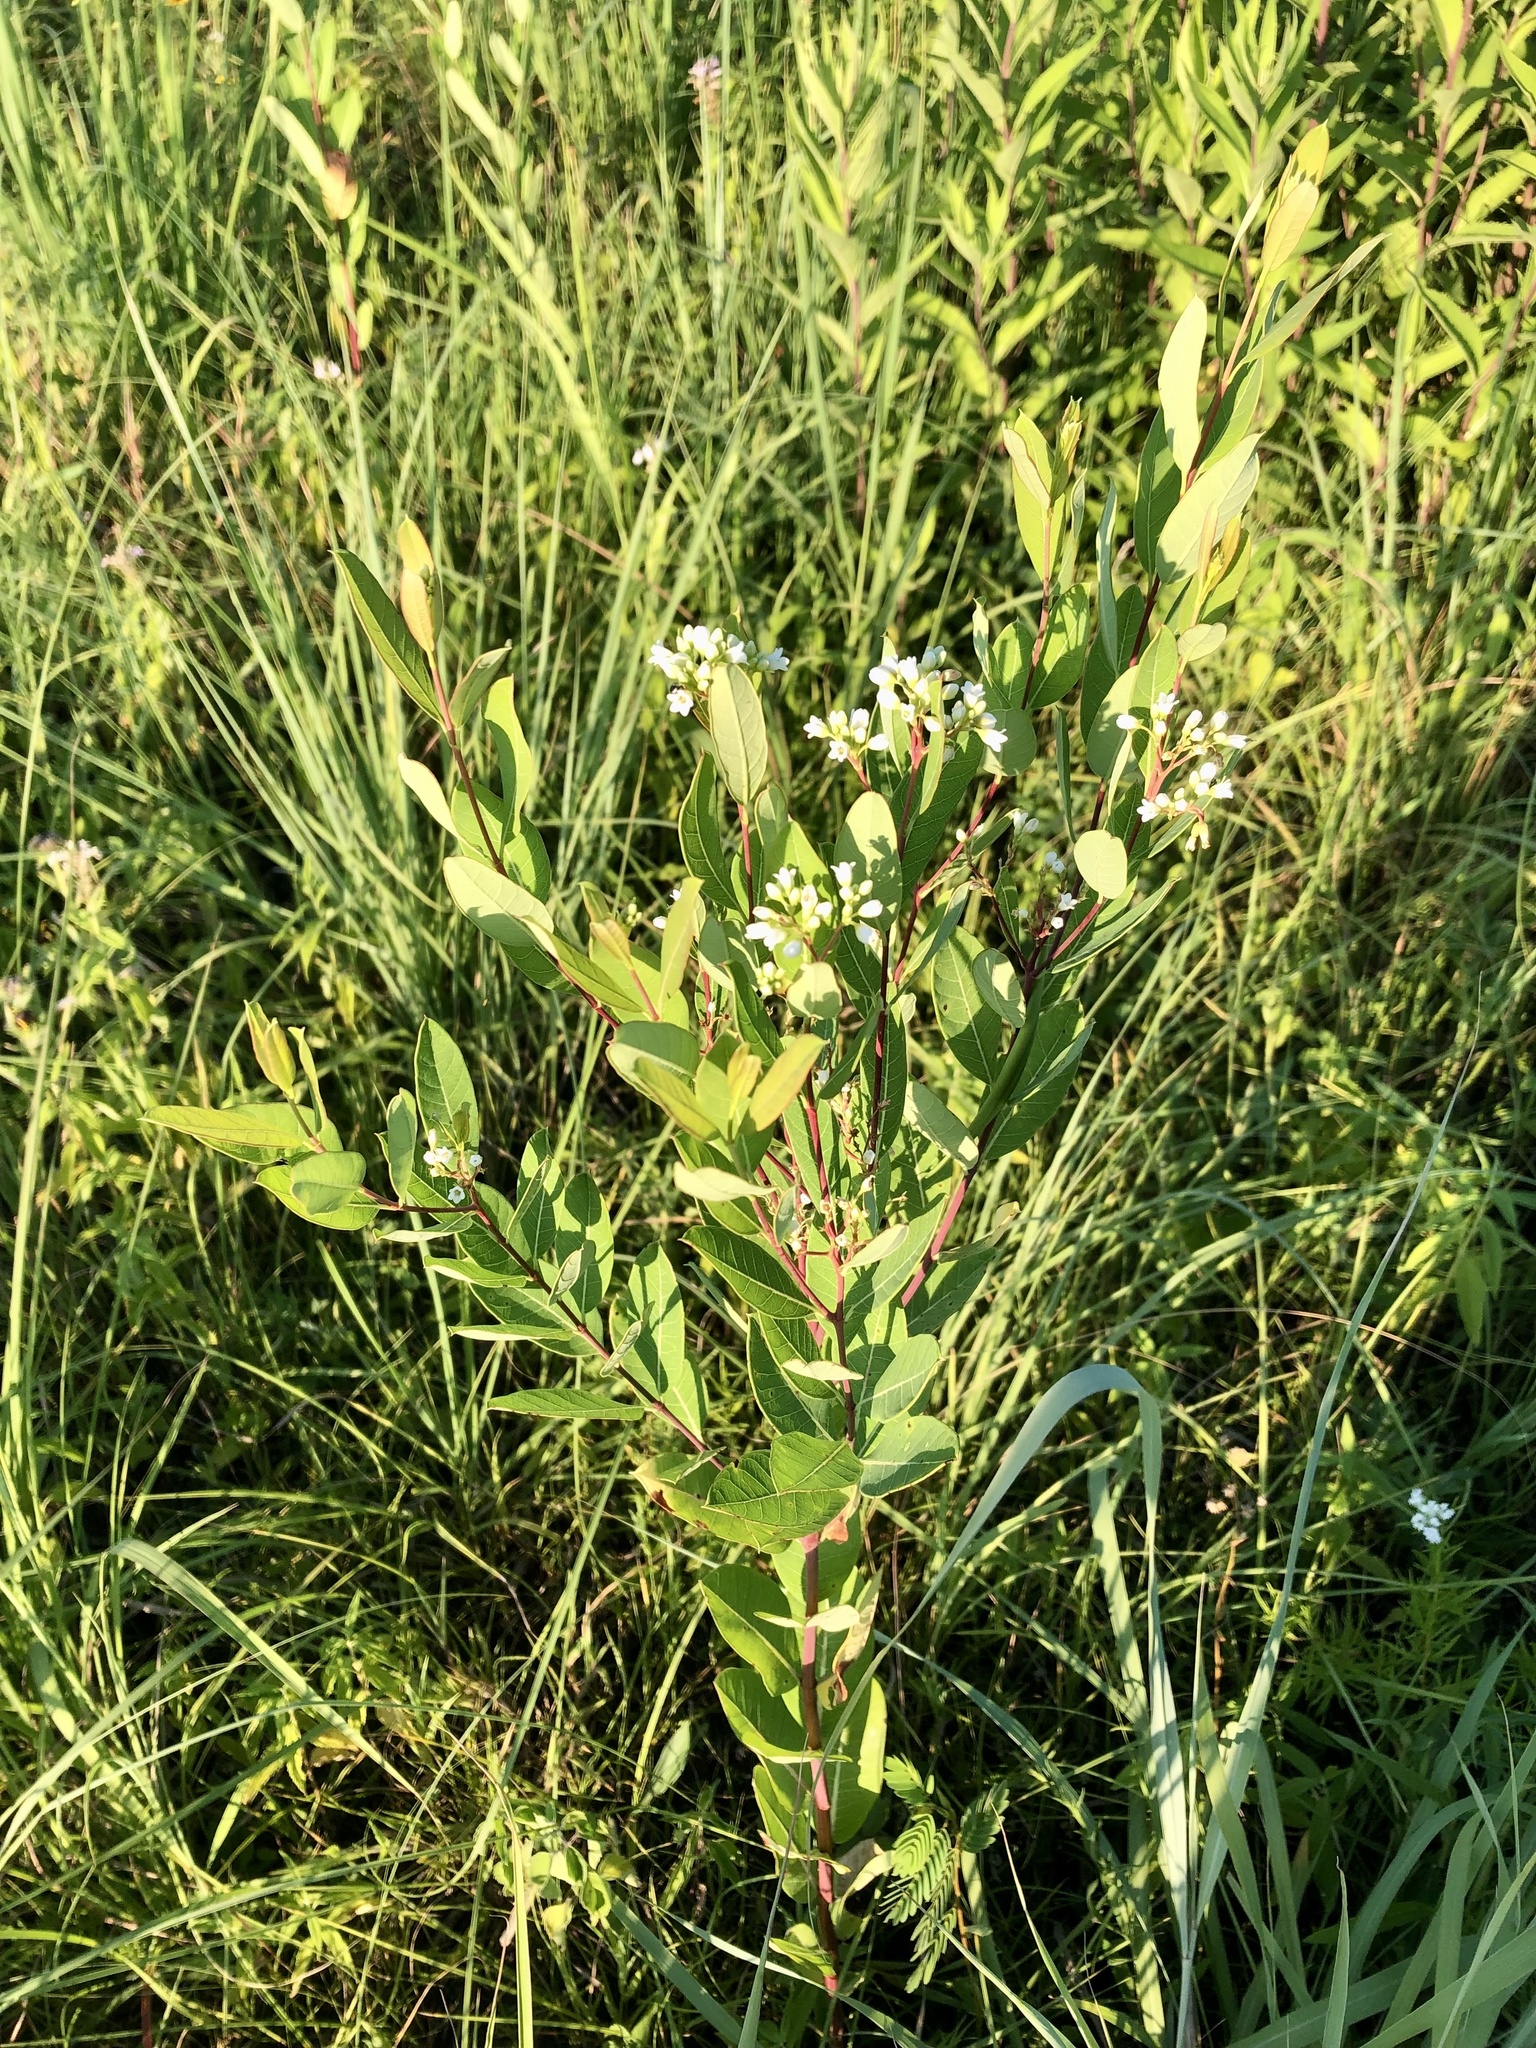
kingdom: Plantae
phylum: Tracheophyta
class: Magnoliopsida
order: Gentianales
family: Apocynaceae
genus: Apocynum
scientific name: Apocynum cannabinum
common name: Hemp dogbane
